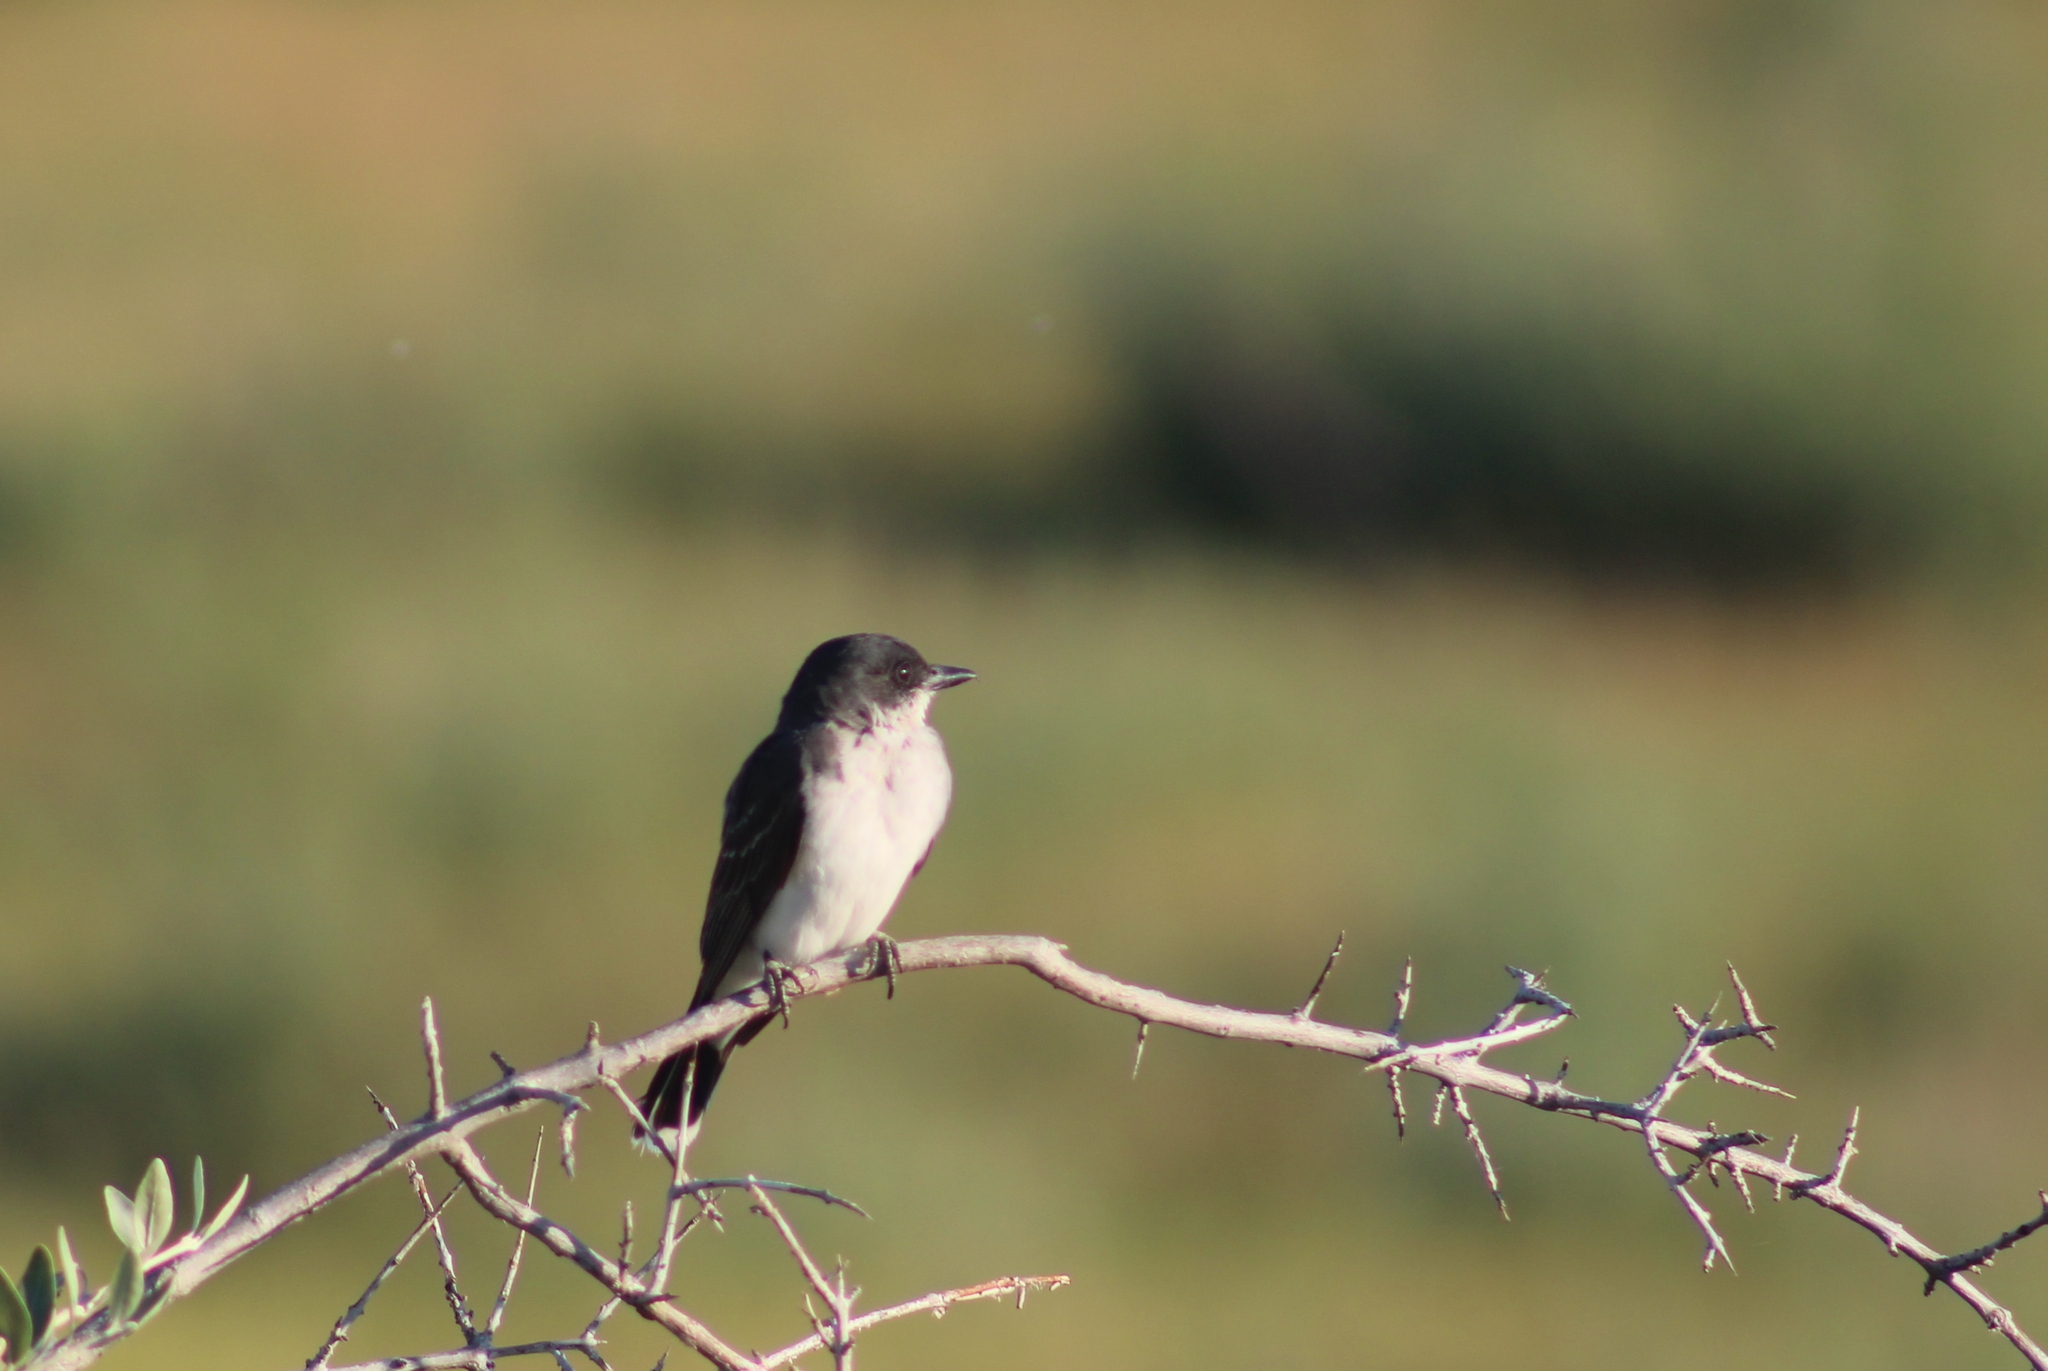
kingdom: Animalia
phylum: Chordata
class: Aves
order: Passeriformes
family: Tyrannidae
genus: Tyrannus
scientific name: Tyrannus tyrannus
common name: Eastern kingbird
